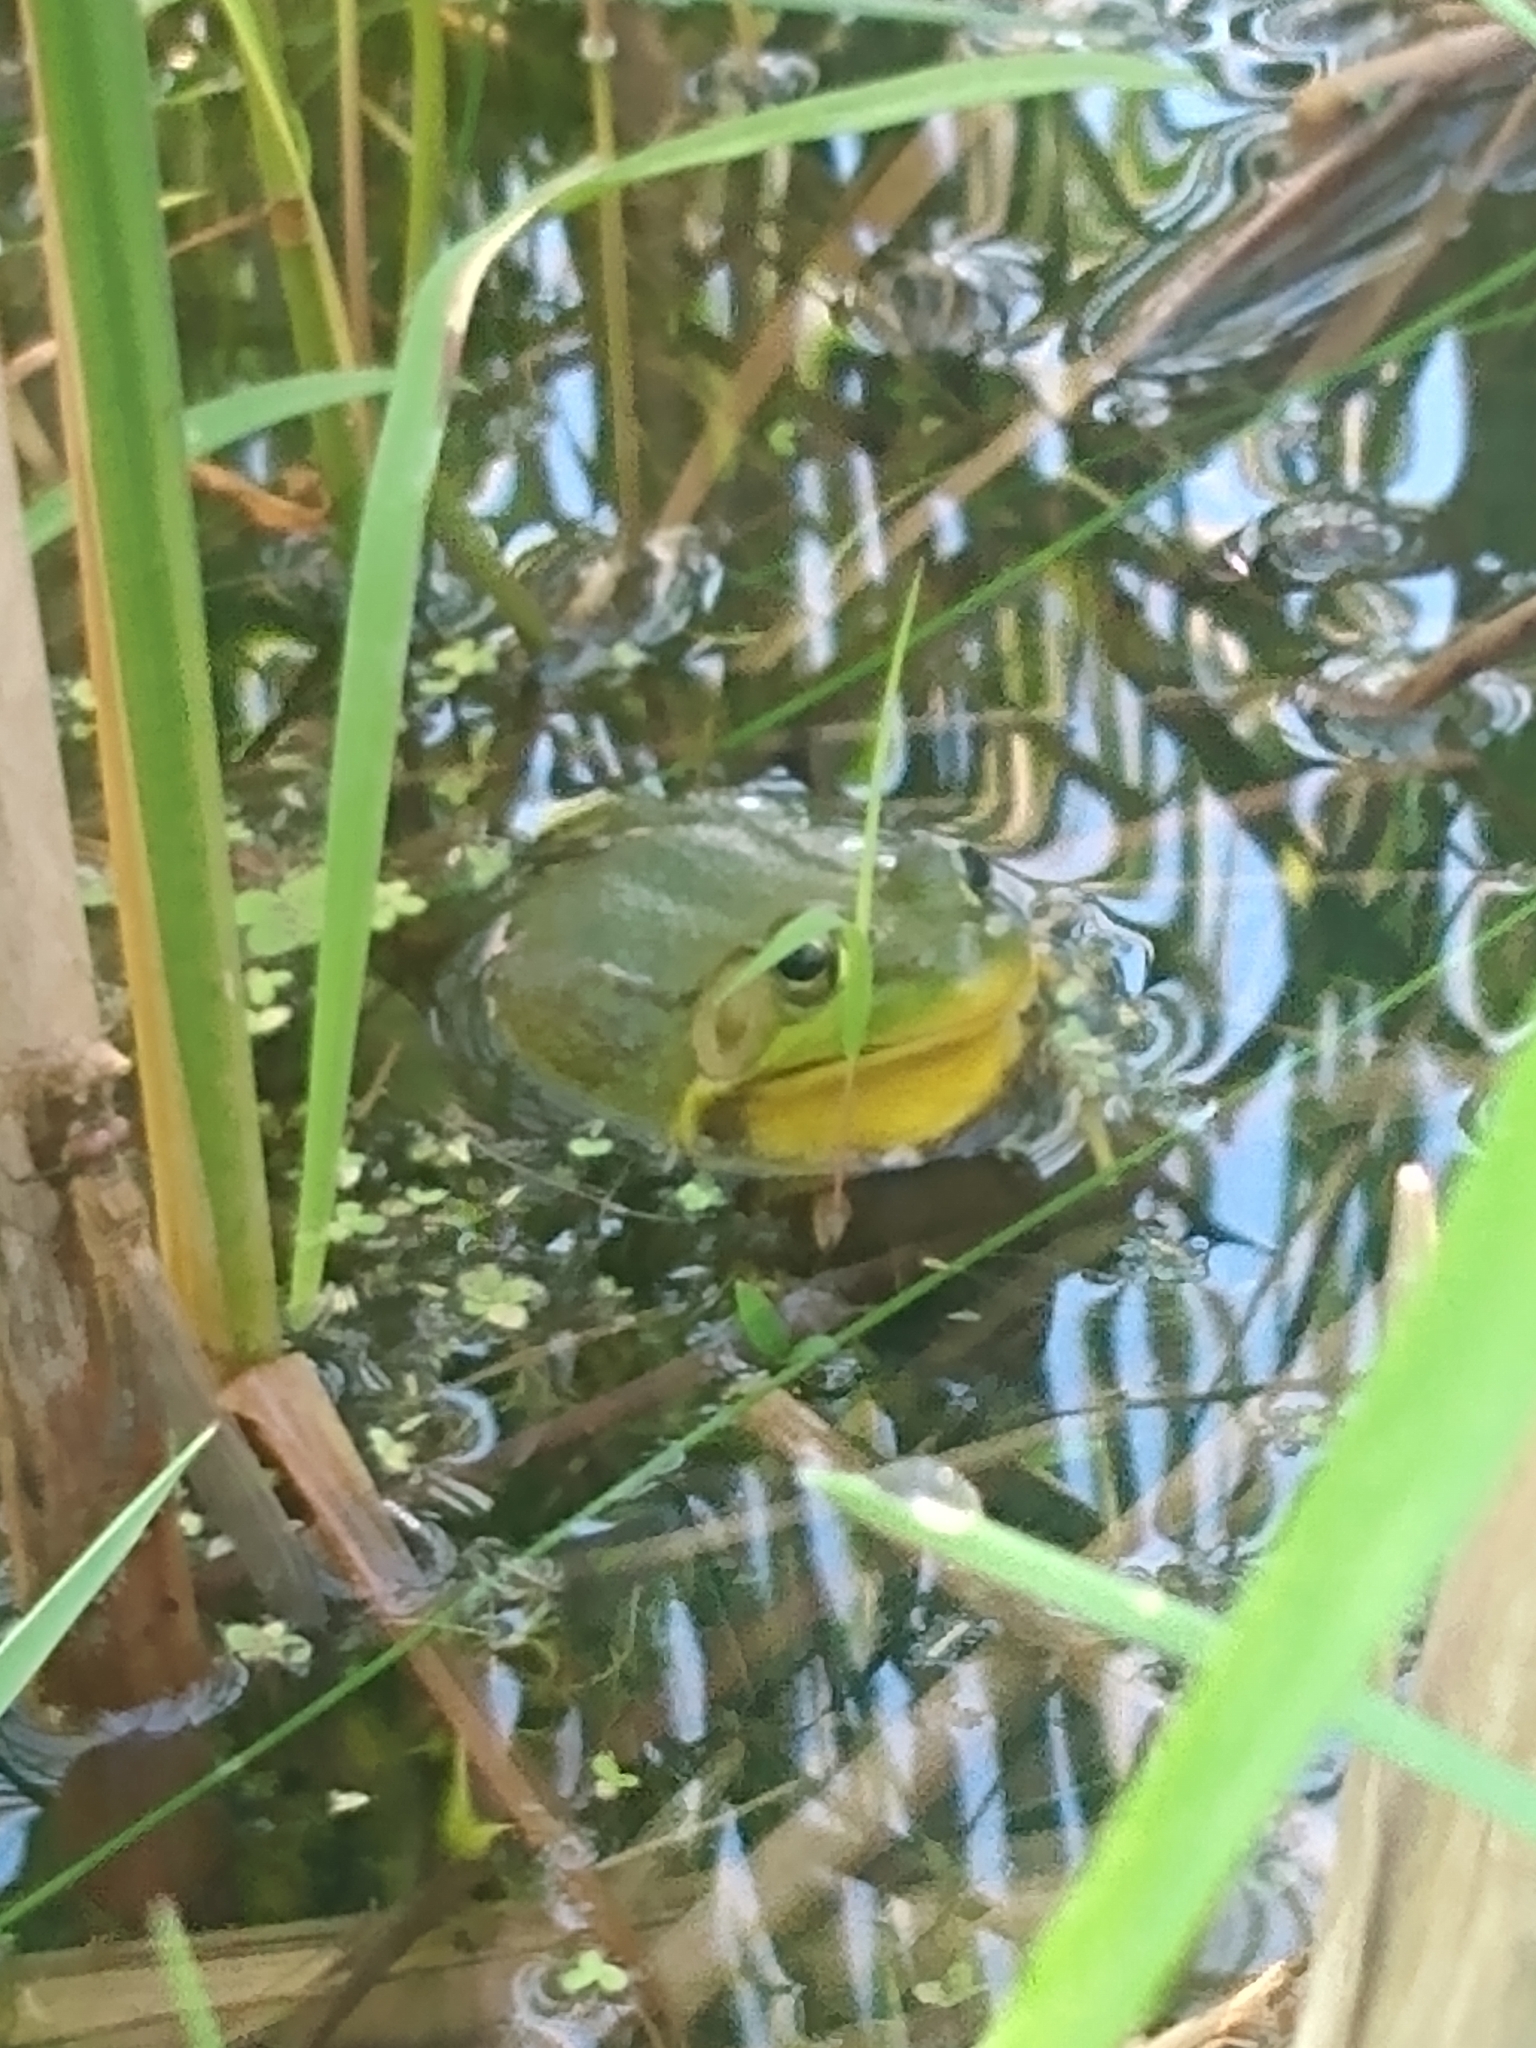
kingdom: Animalia
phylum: Chordata
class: Amphibia
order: Anura
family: Ranidae
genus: Lithobates
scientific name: Lithobates clamitans
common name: Green frog
